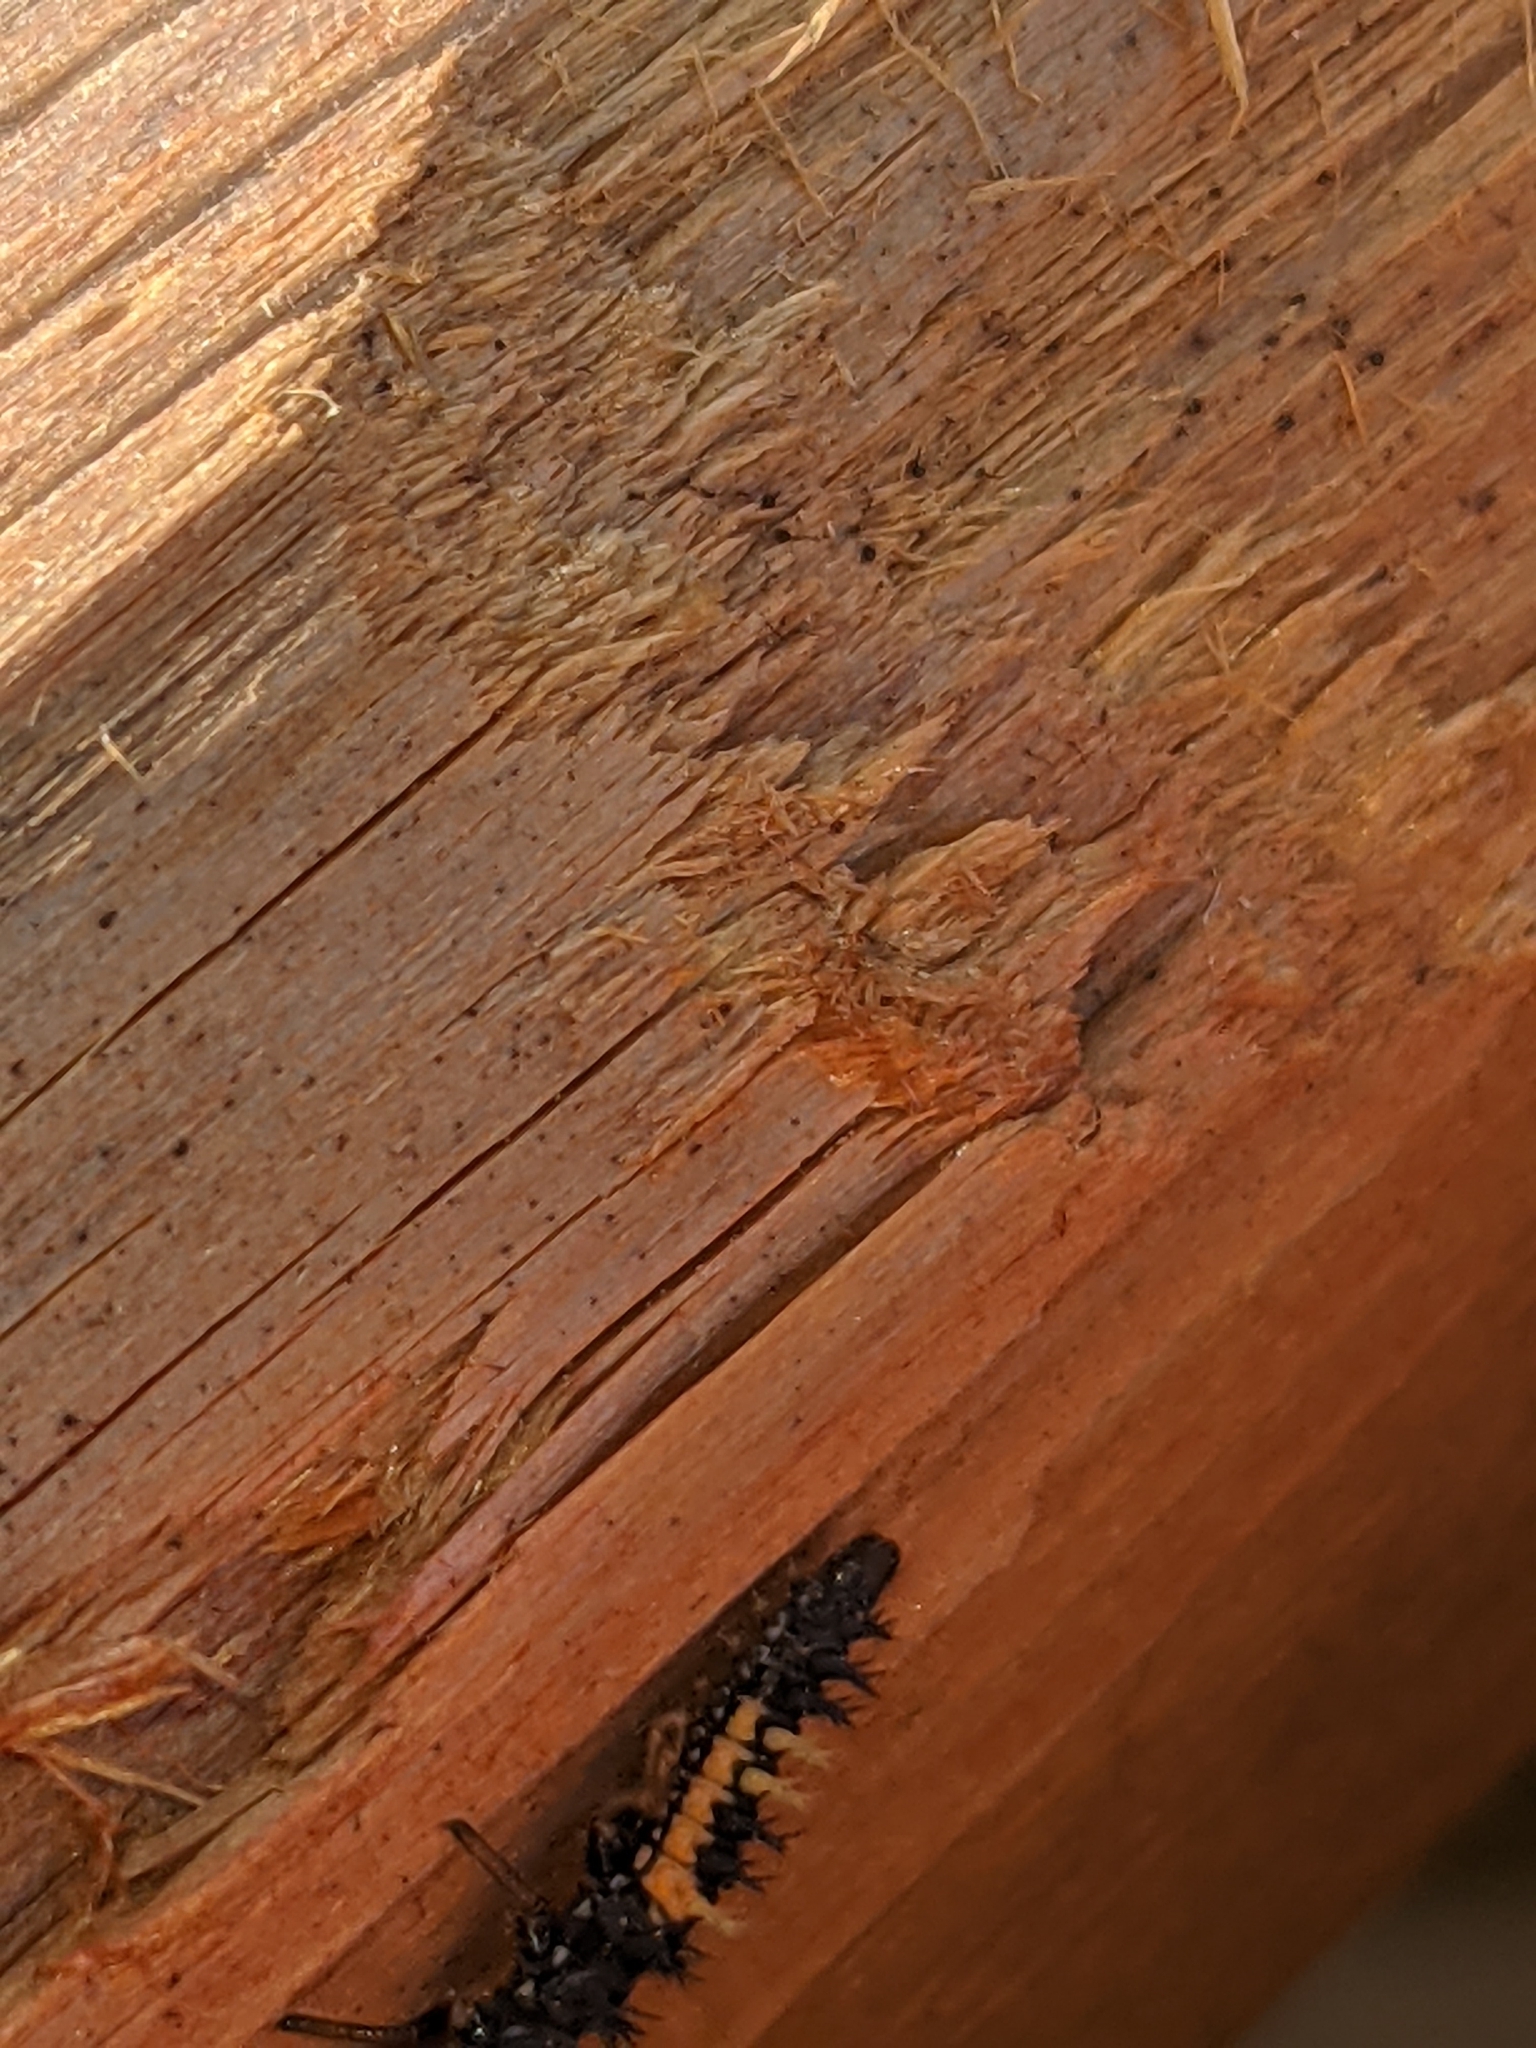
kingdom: Animalia
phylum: Arthropoda
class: Insecta
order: Coleoptera
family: Coccinellidae
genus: Harmonia
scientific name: Harmonia axyridis
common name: Harlequin ladybird
